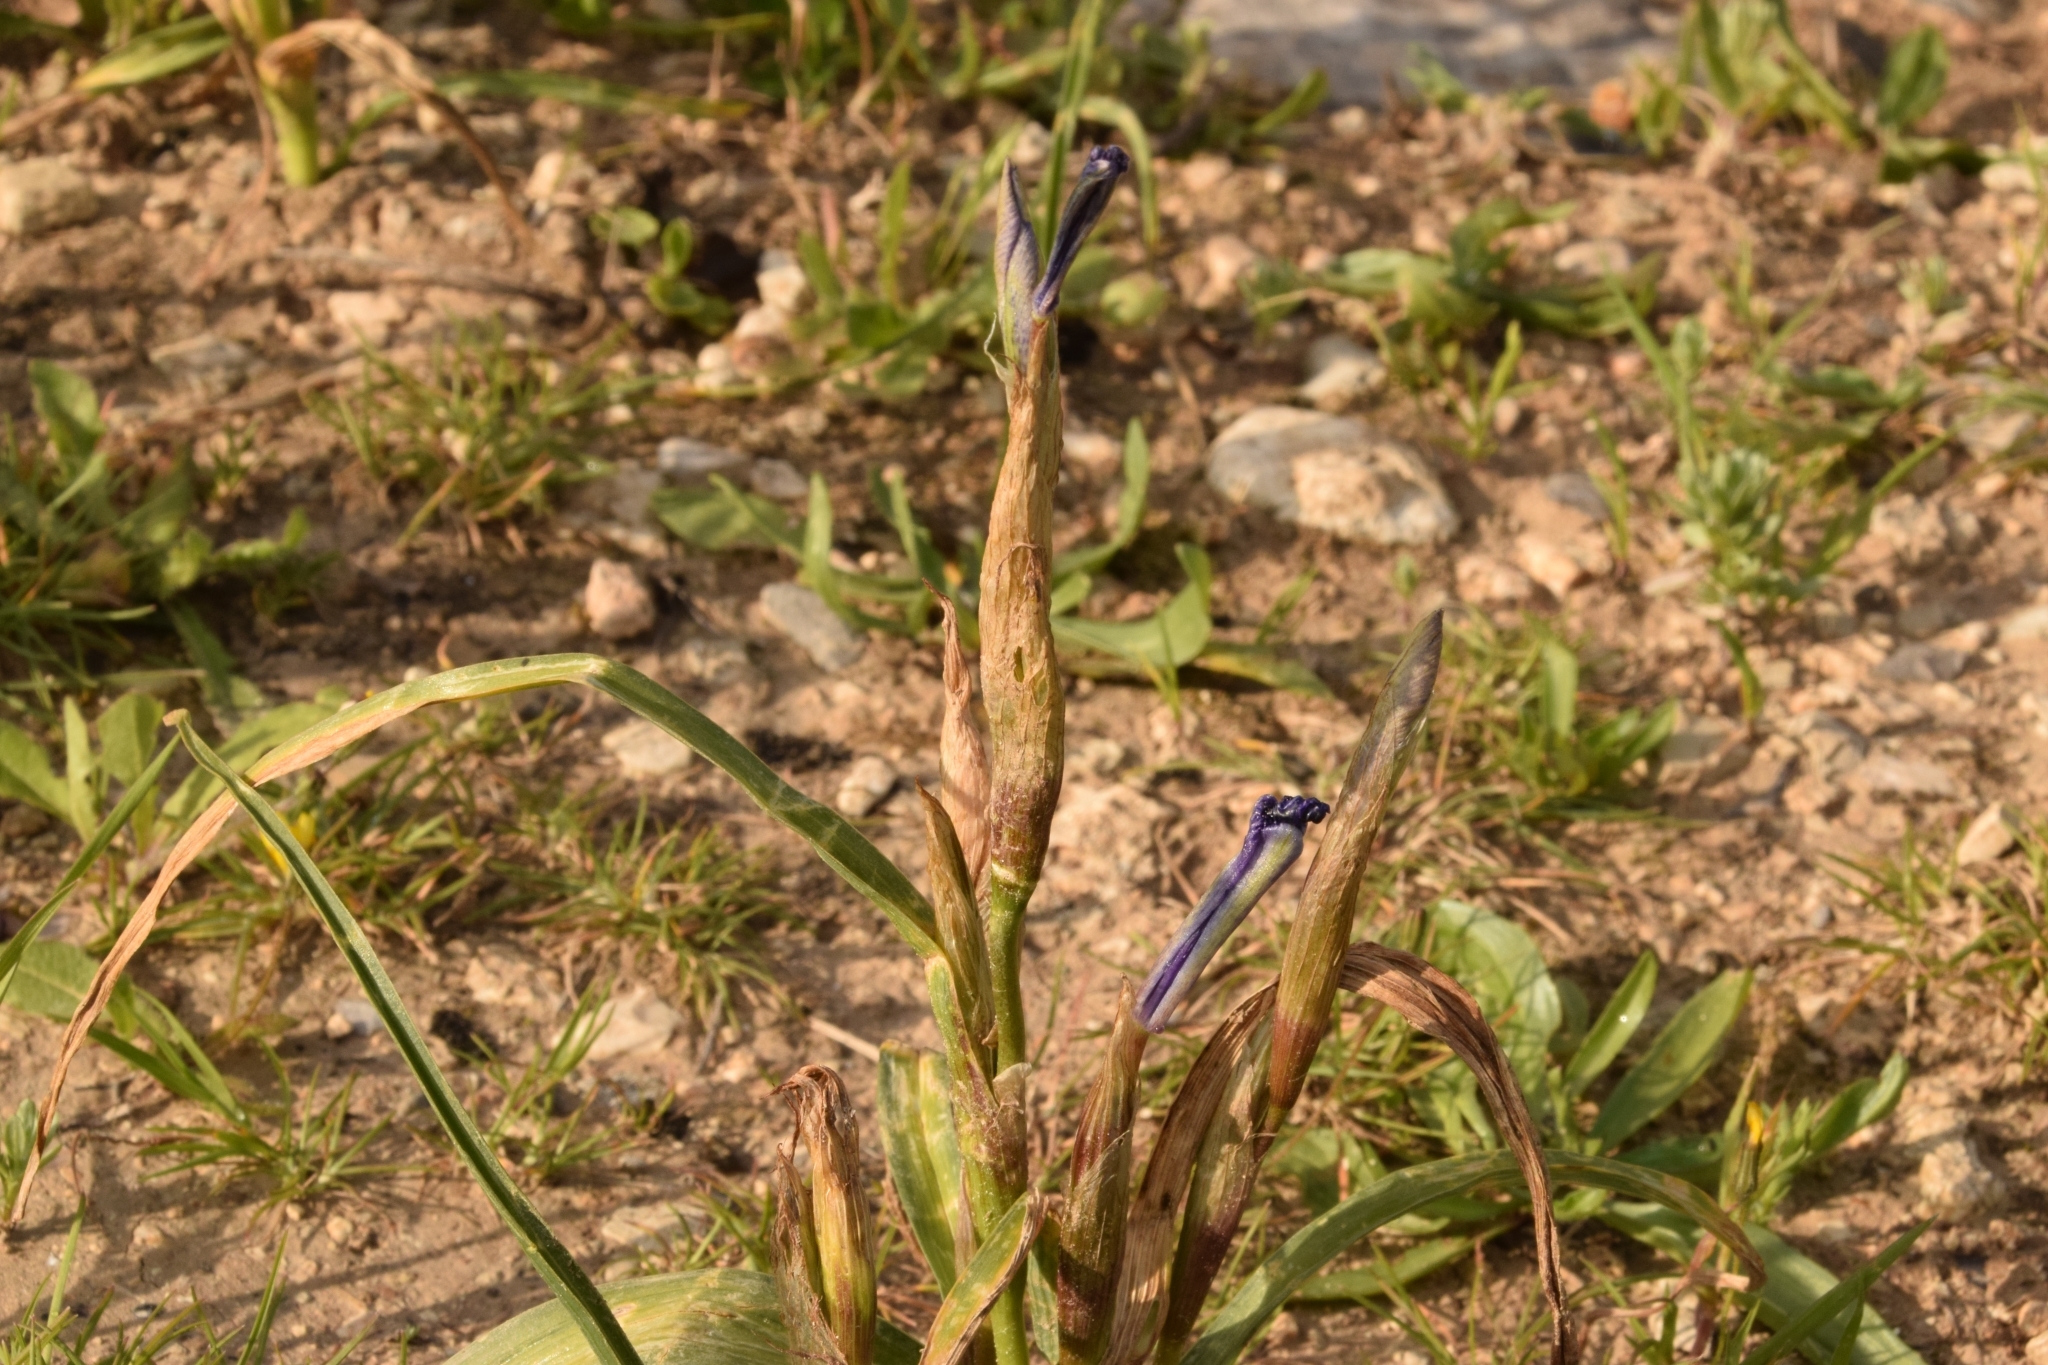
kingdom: Plantae
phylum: Tracheophyta
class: Liliopsida
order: Asparagales
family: Iridaceae
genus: Moraea
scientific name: Moraea sisyrinchium
